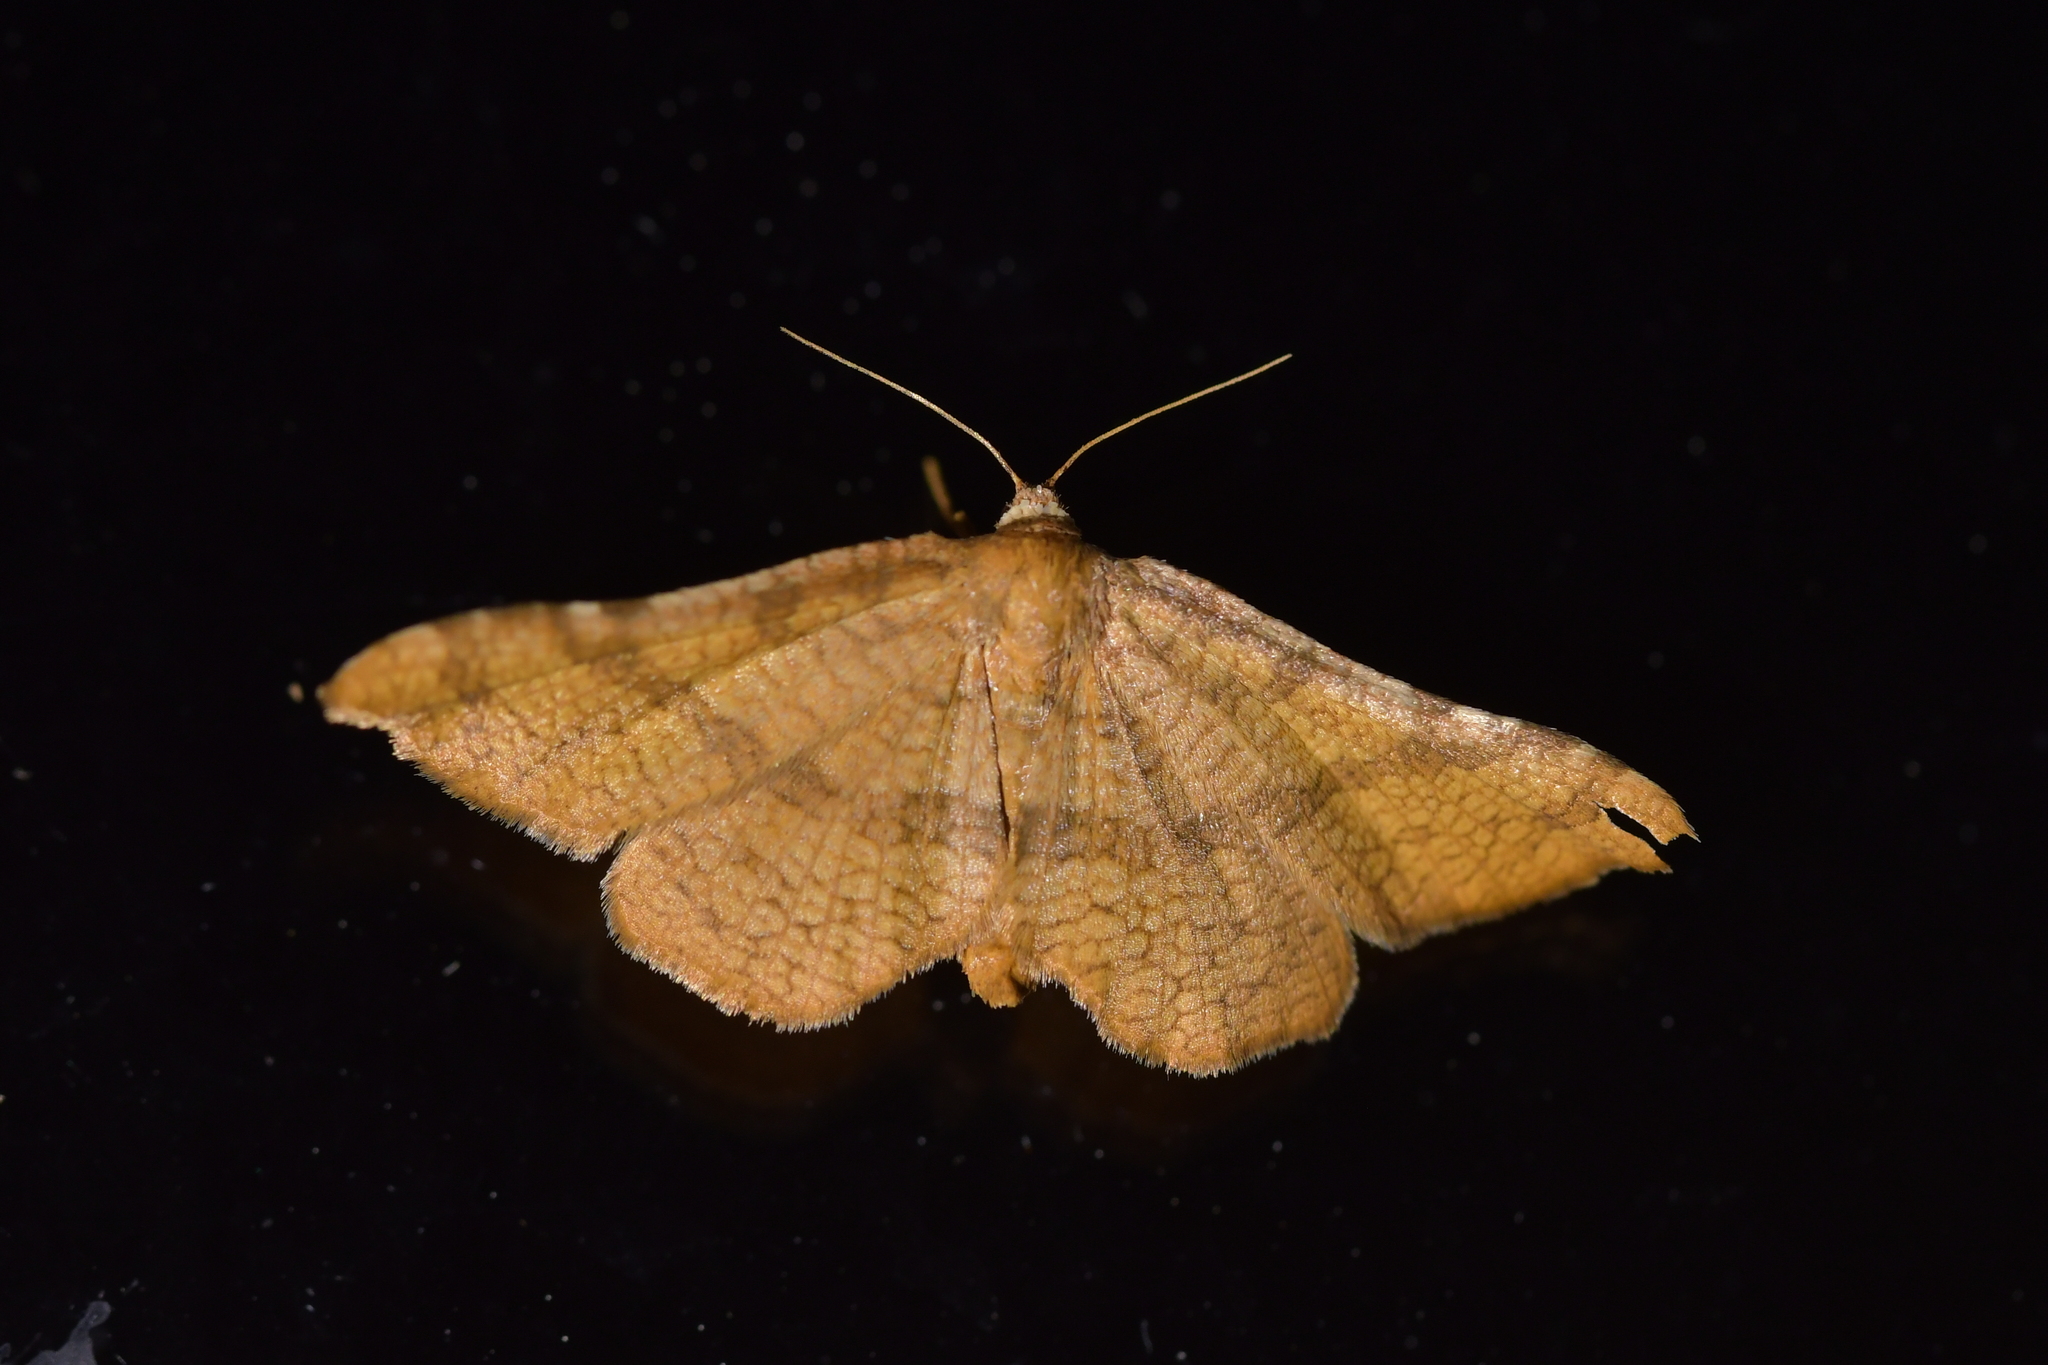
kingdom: Animalia
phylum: Arthropoda
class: Insecta
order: Lepidoptera
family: Thyrididae
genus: Morova
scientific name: Morova subfasciata
